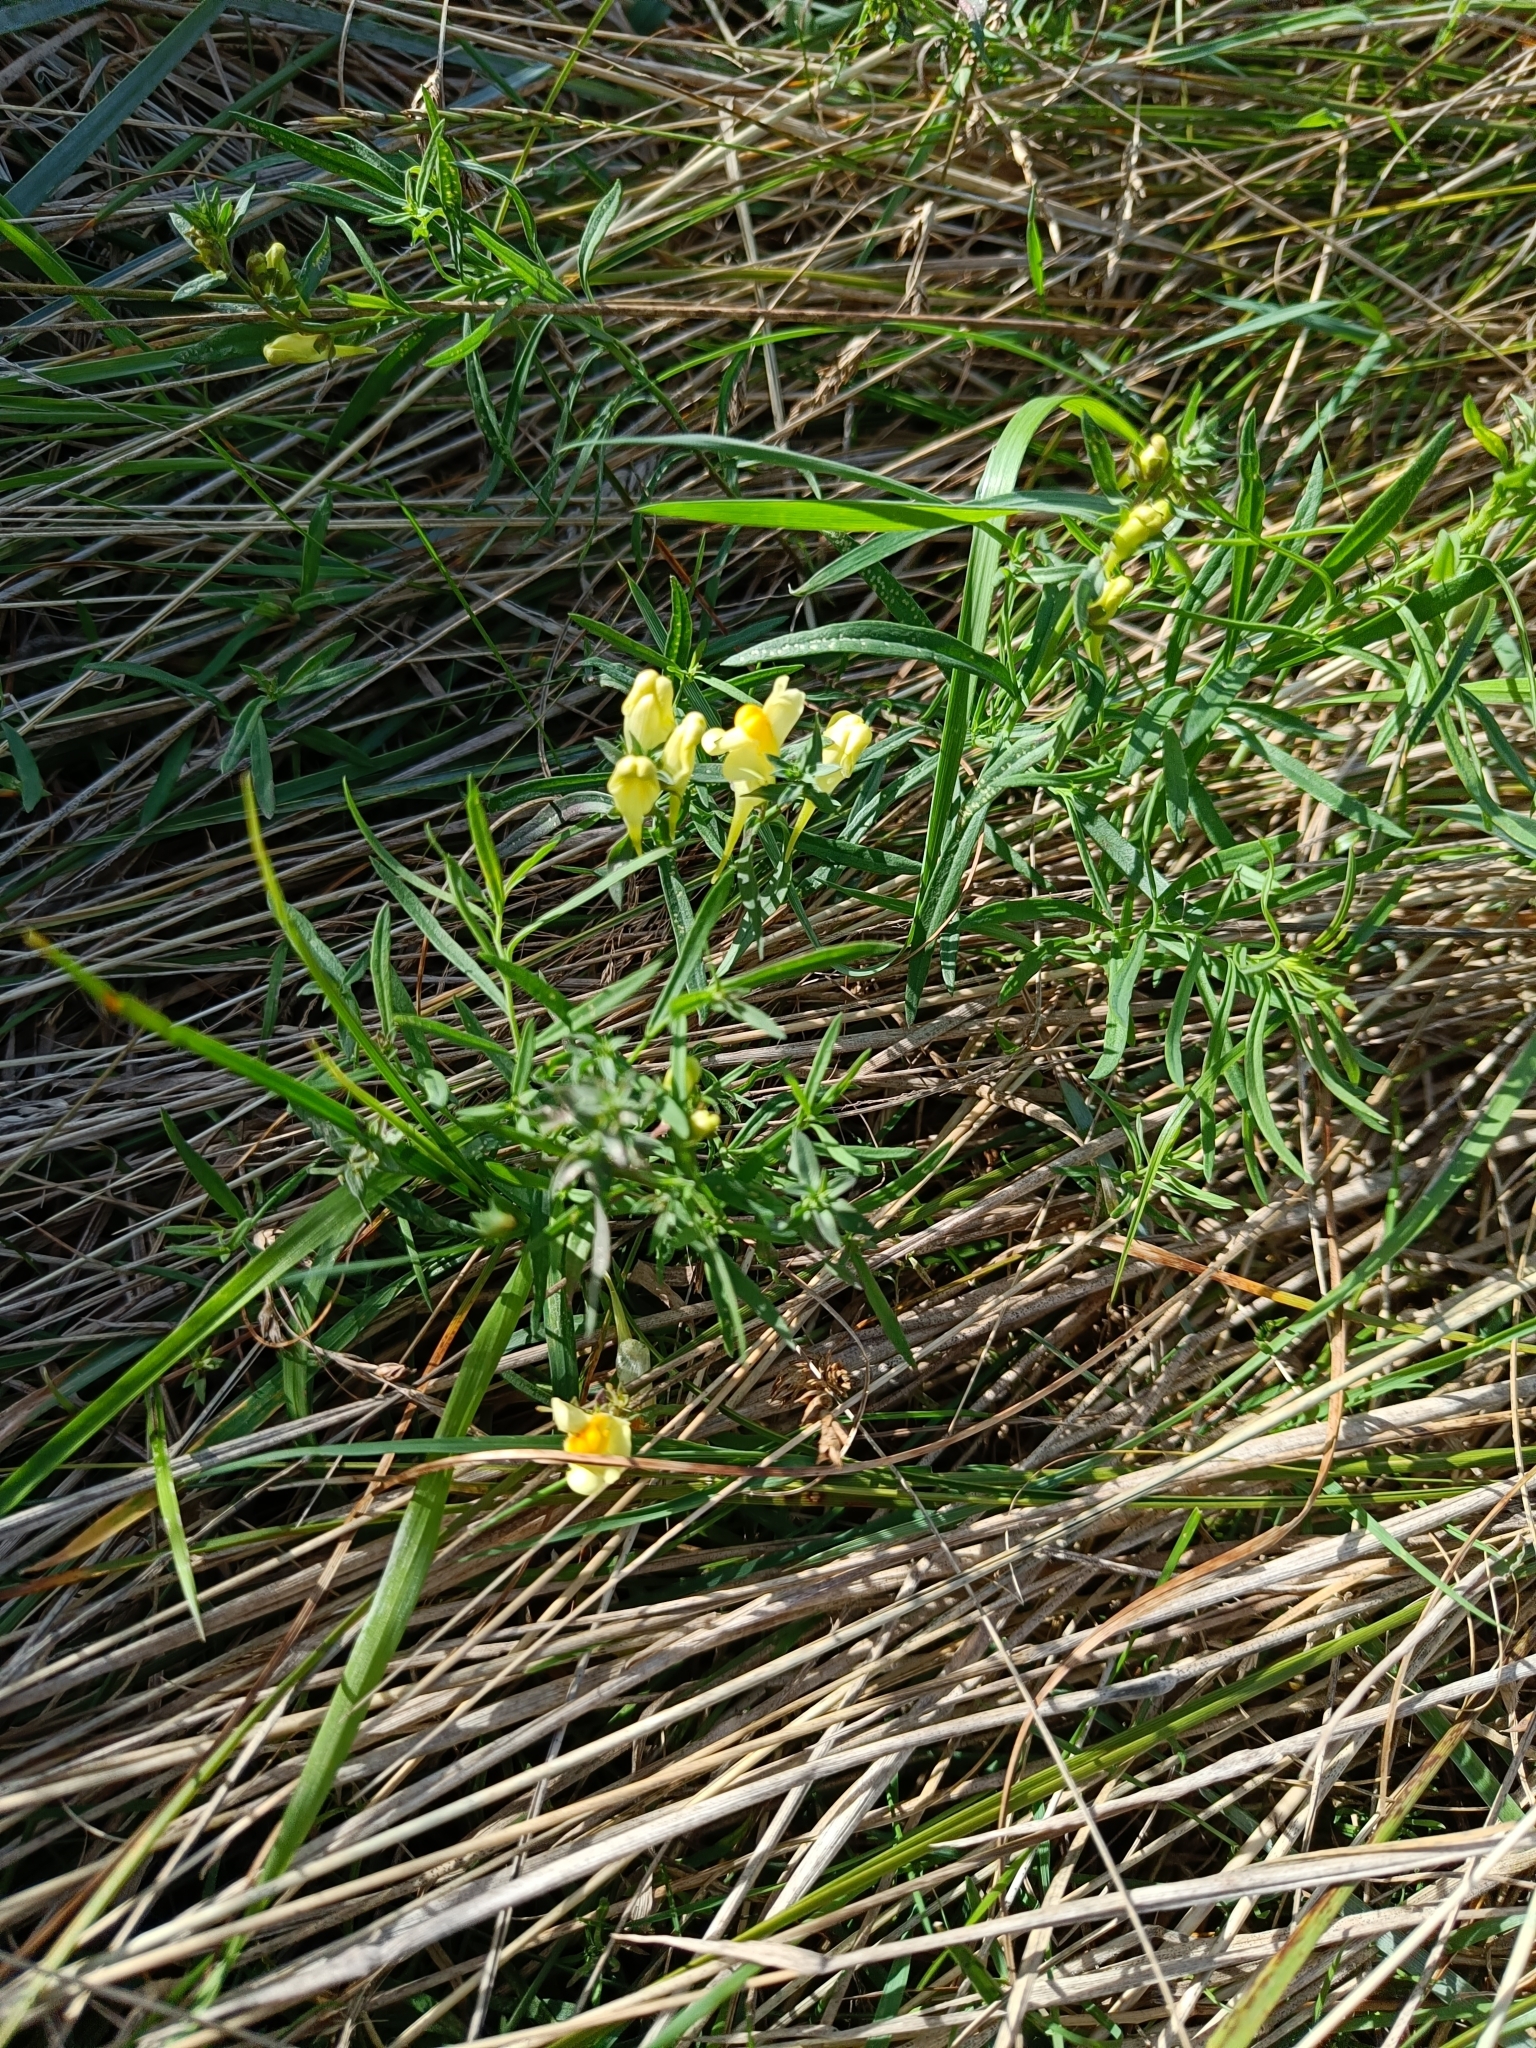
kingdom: Plantae
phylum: Tracheophyta
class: Magnoliopsida
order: Lamiales
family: Plantaginaceae
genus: Linaria
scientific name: Linaria vulgaris
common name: Butter and eggs
